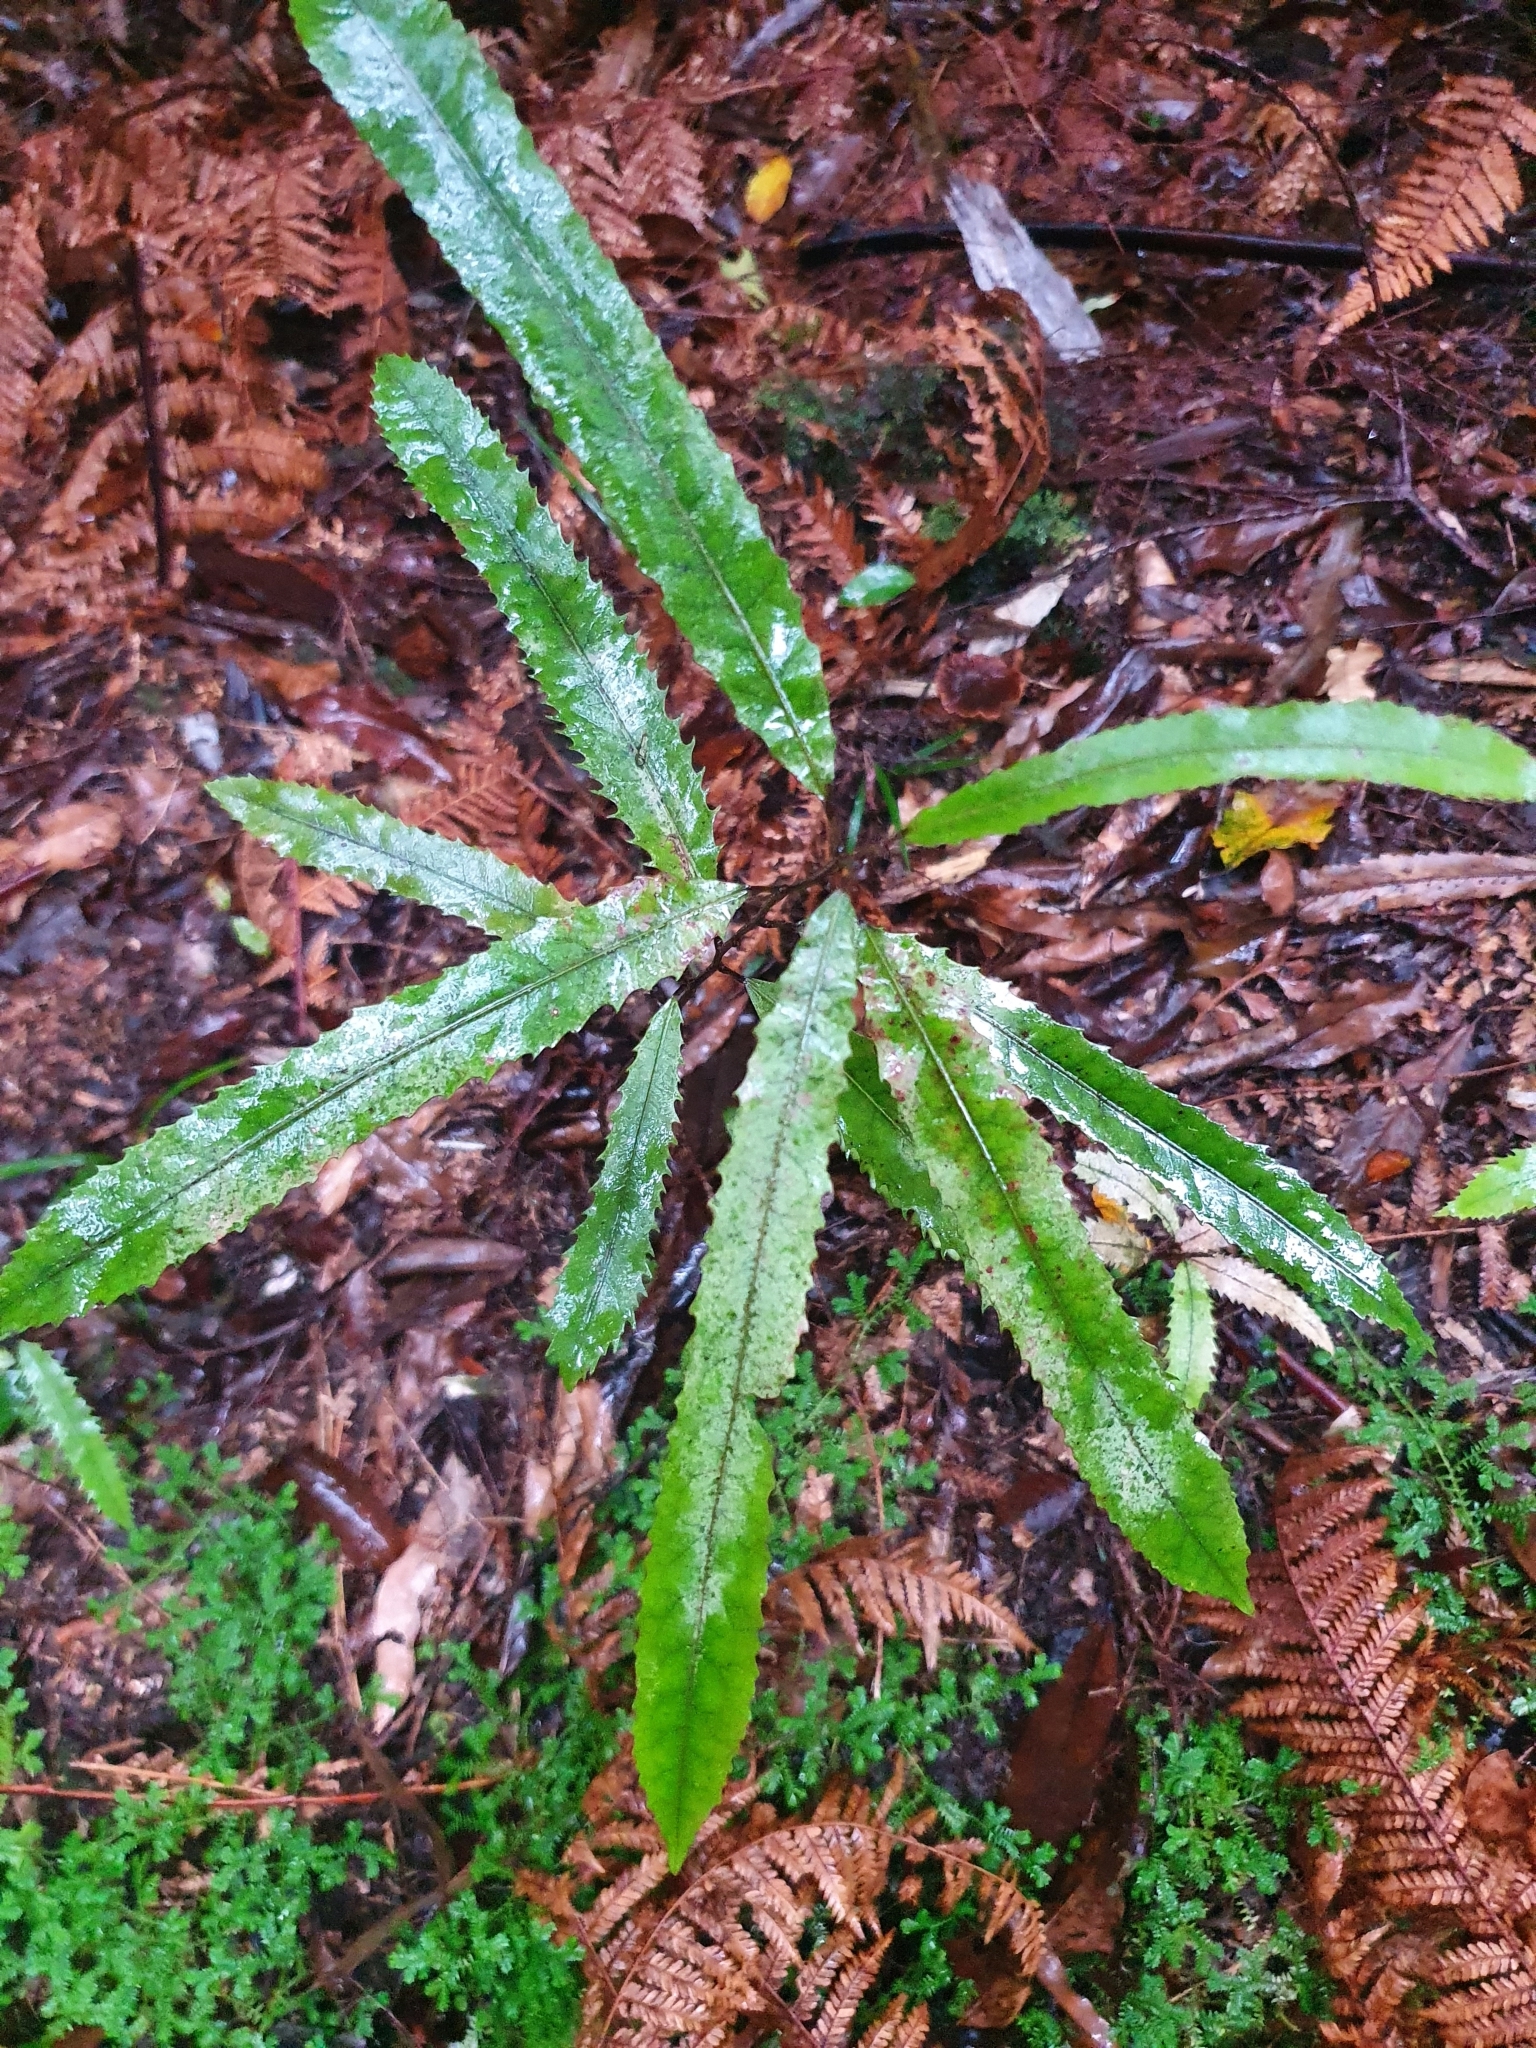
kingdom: Plantae
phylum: Tracheophyta
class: Magnoliopsida
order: Oxalidales
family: Elaeocarpaceae
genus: Elaeocarpus
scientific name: Elaeocarpus dentatus
